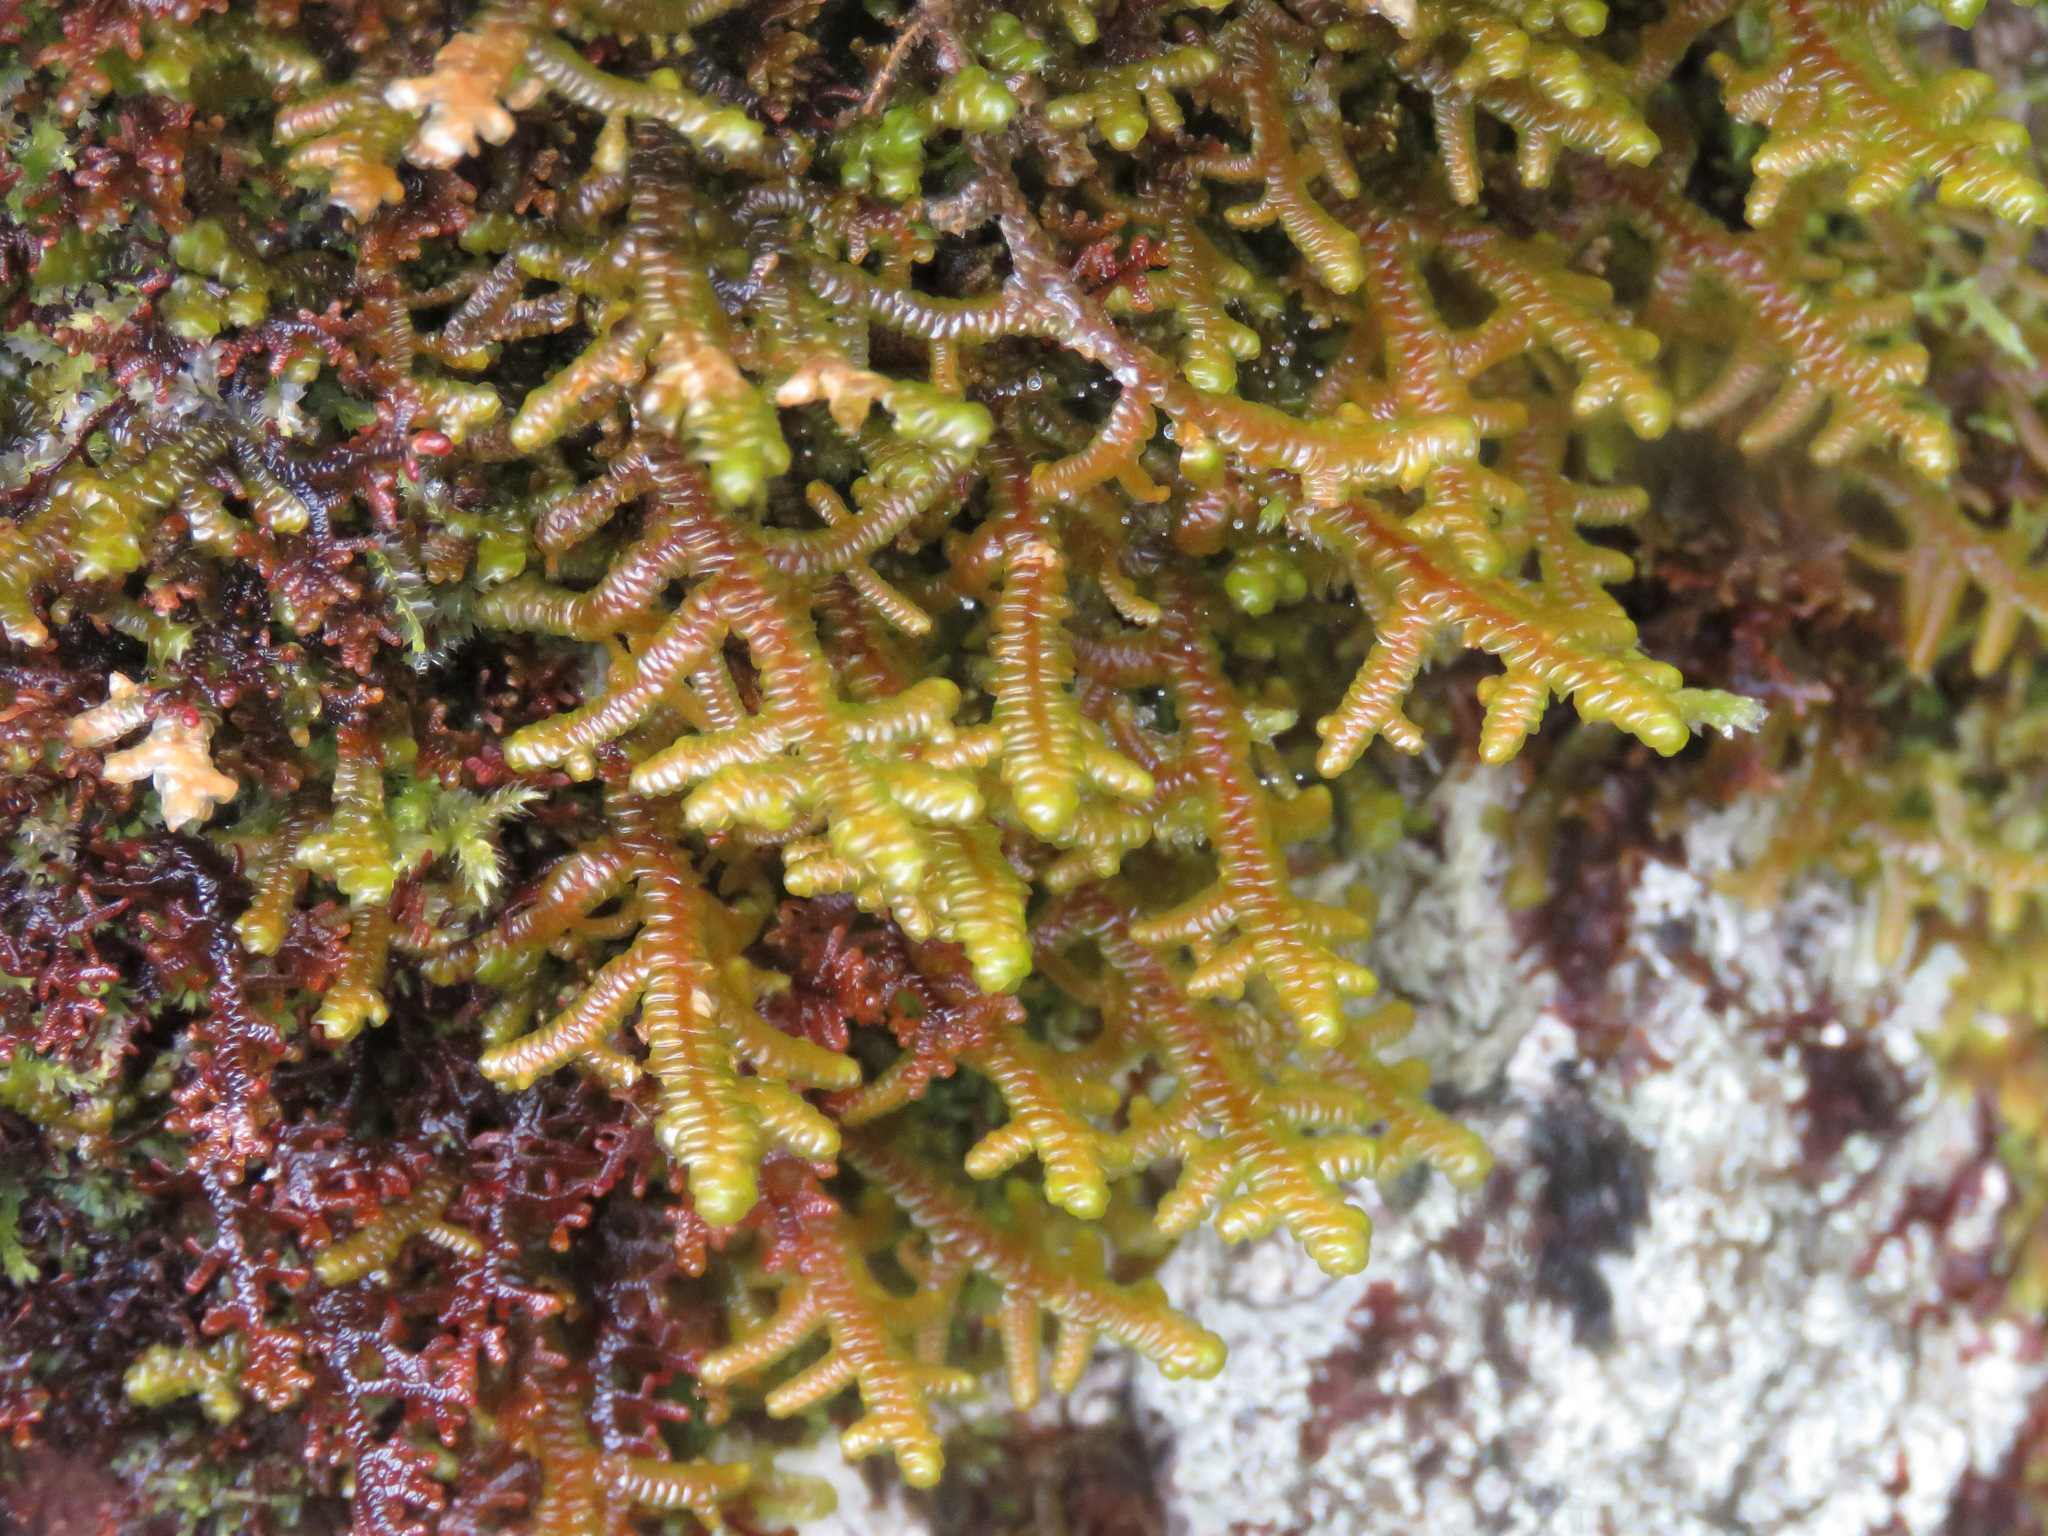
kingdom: Plantae
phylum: Marchantiophyta
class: Jungermanniopsida
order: Porellales
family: Porellaceae
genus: Porella
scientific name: Porella navicularis
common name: Tree ruffle liverwort
